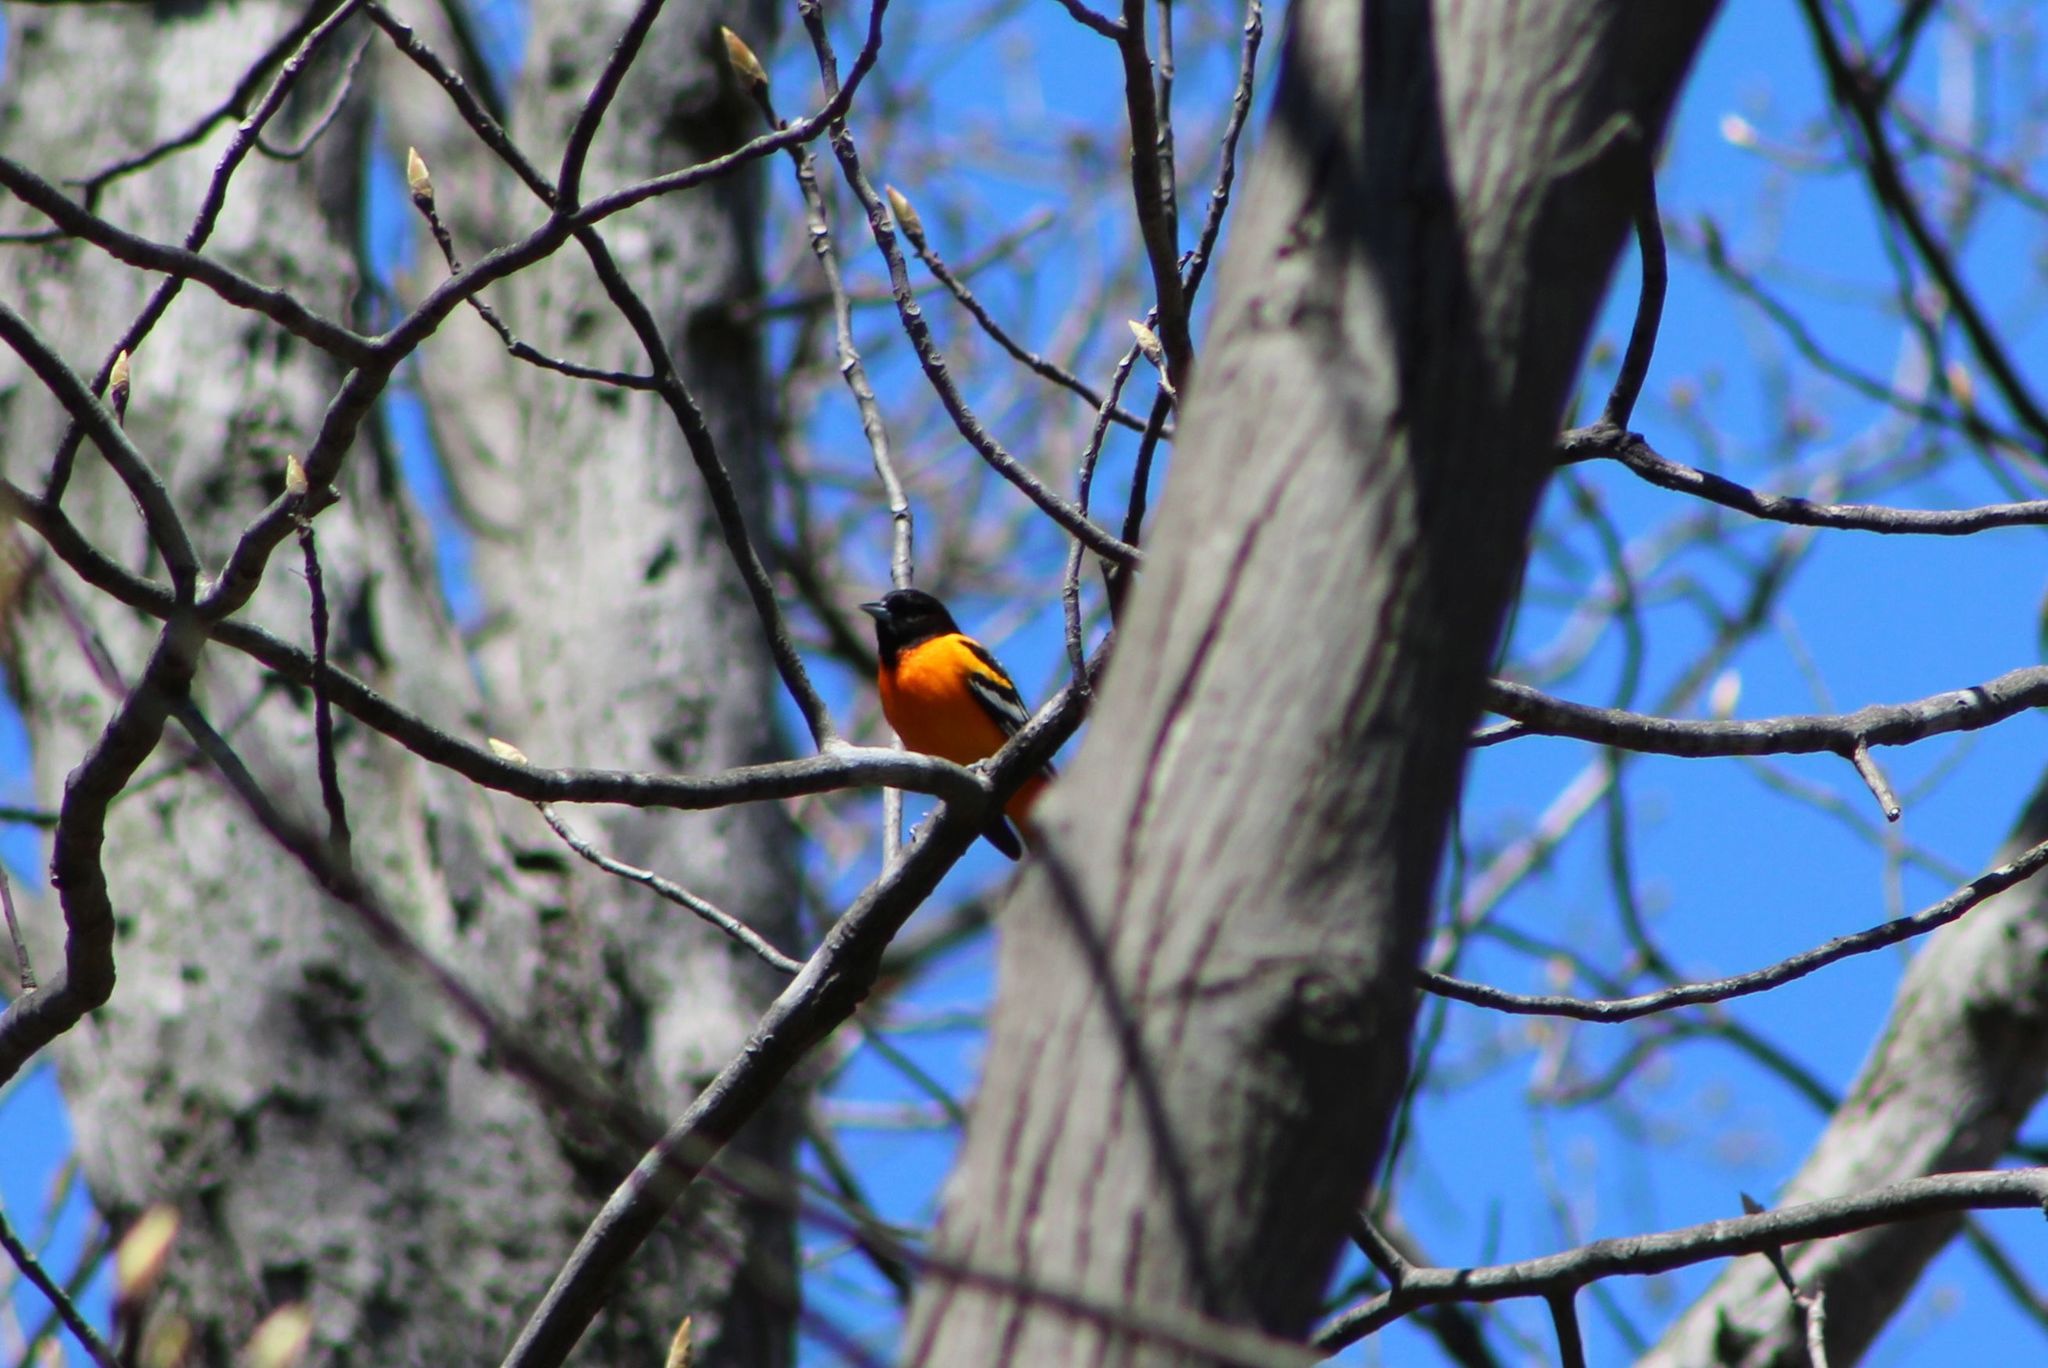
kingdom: Animalia
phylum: Chordata
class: Aves
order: Passeriformes
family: Icteridae
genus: Icterus
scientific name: Icterus galbula
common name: Baltimore oriole
